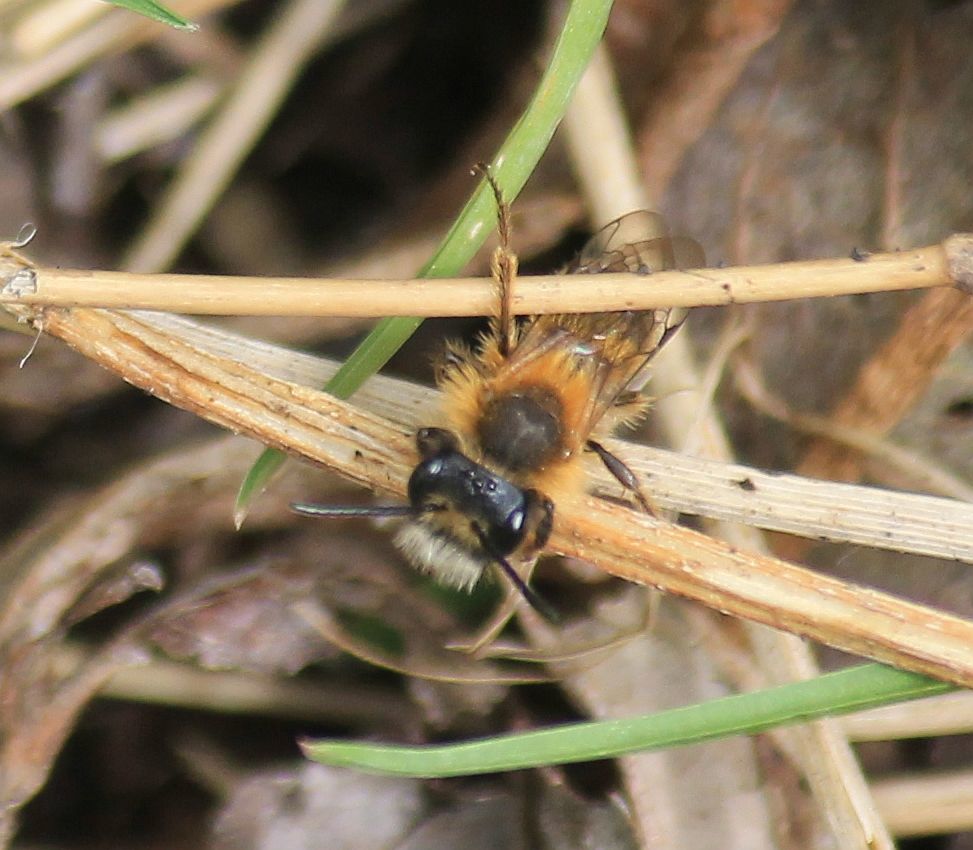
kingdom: Animalia
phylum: Arthropoda
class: Insecta
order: Hymenoptera
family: Andrenidae
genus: Andrena
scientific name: Andrena fulva
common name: Tawny mining bee
